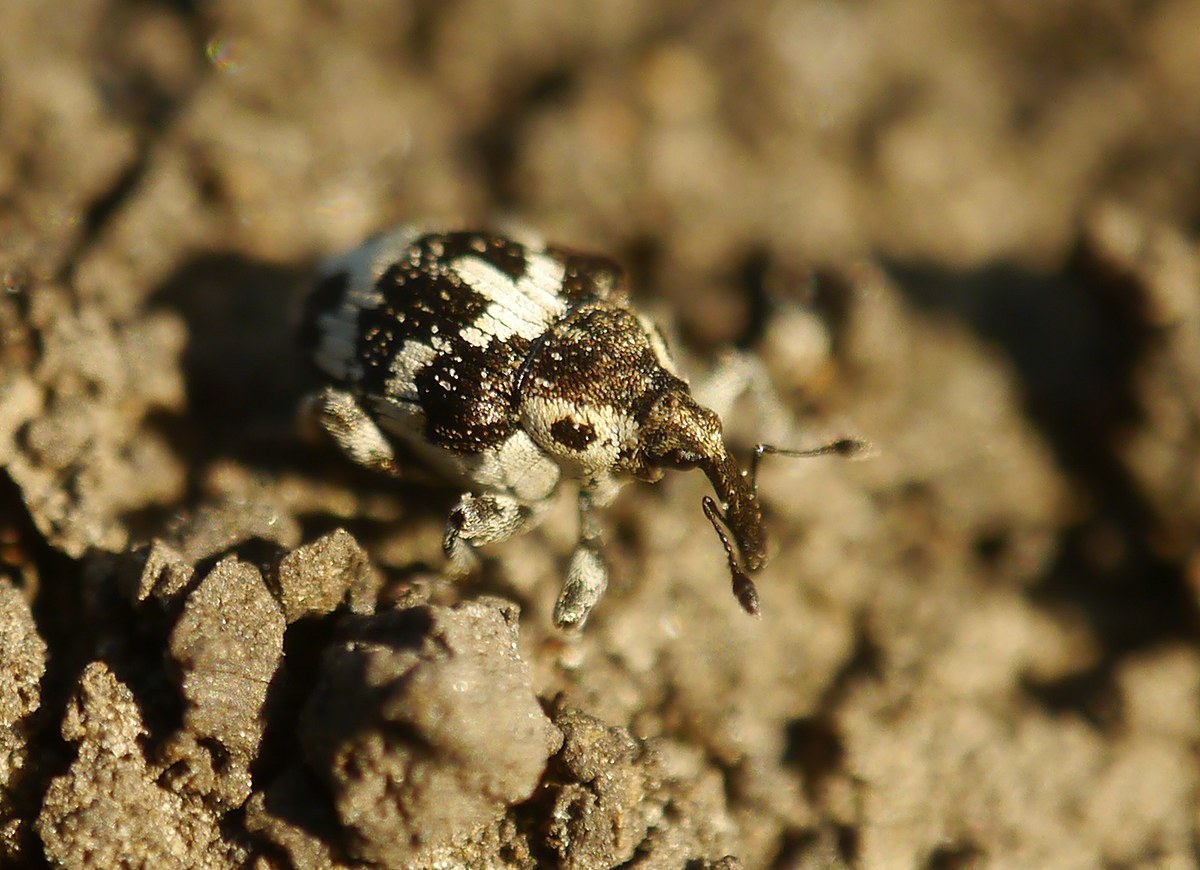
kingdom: Animalia
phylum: Arthropoda
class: Insecta
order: Coleoptera
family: Curculionidae
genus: Thamiocolus
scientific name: Thamiocolus sinapis
